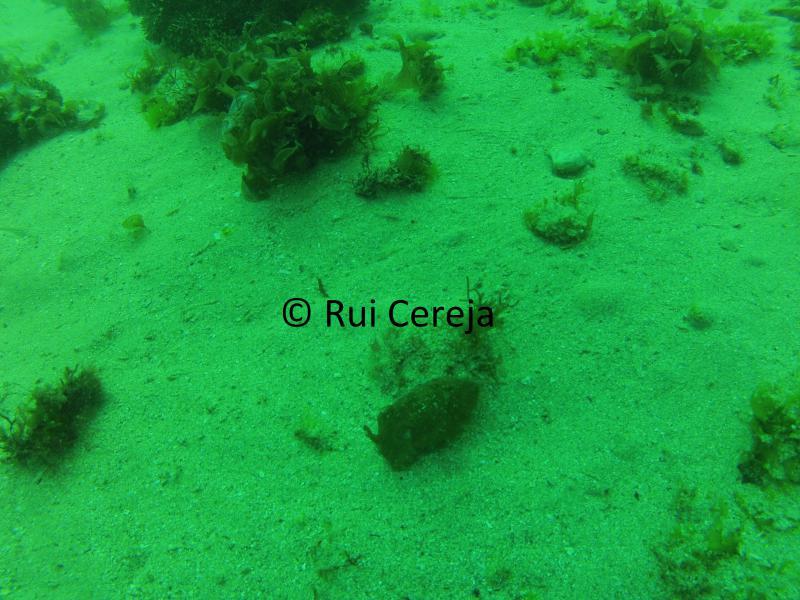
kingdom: Animalia
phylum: Mollusca
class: Cephalopoda
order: Sepiida
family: Sepiidae
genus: Sepia
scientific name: Sepia officinalis
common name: Common cuttlefish
